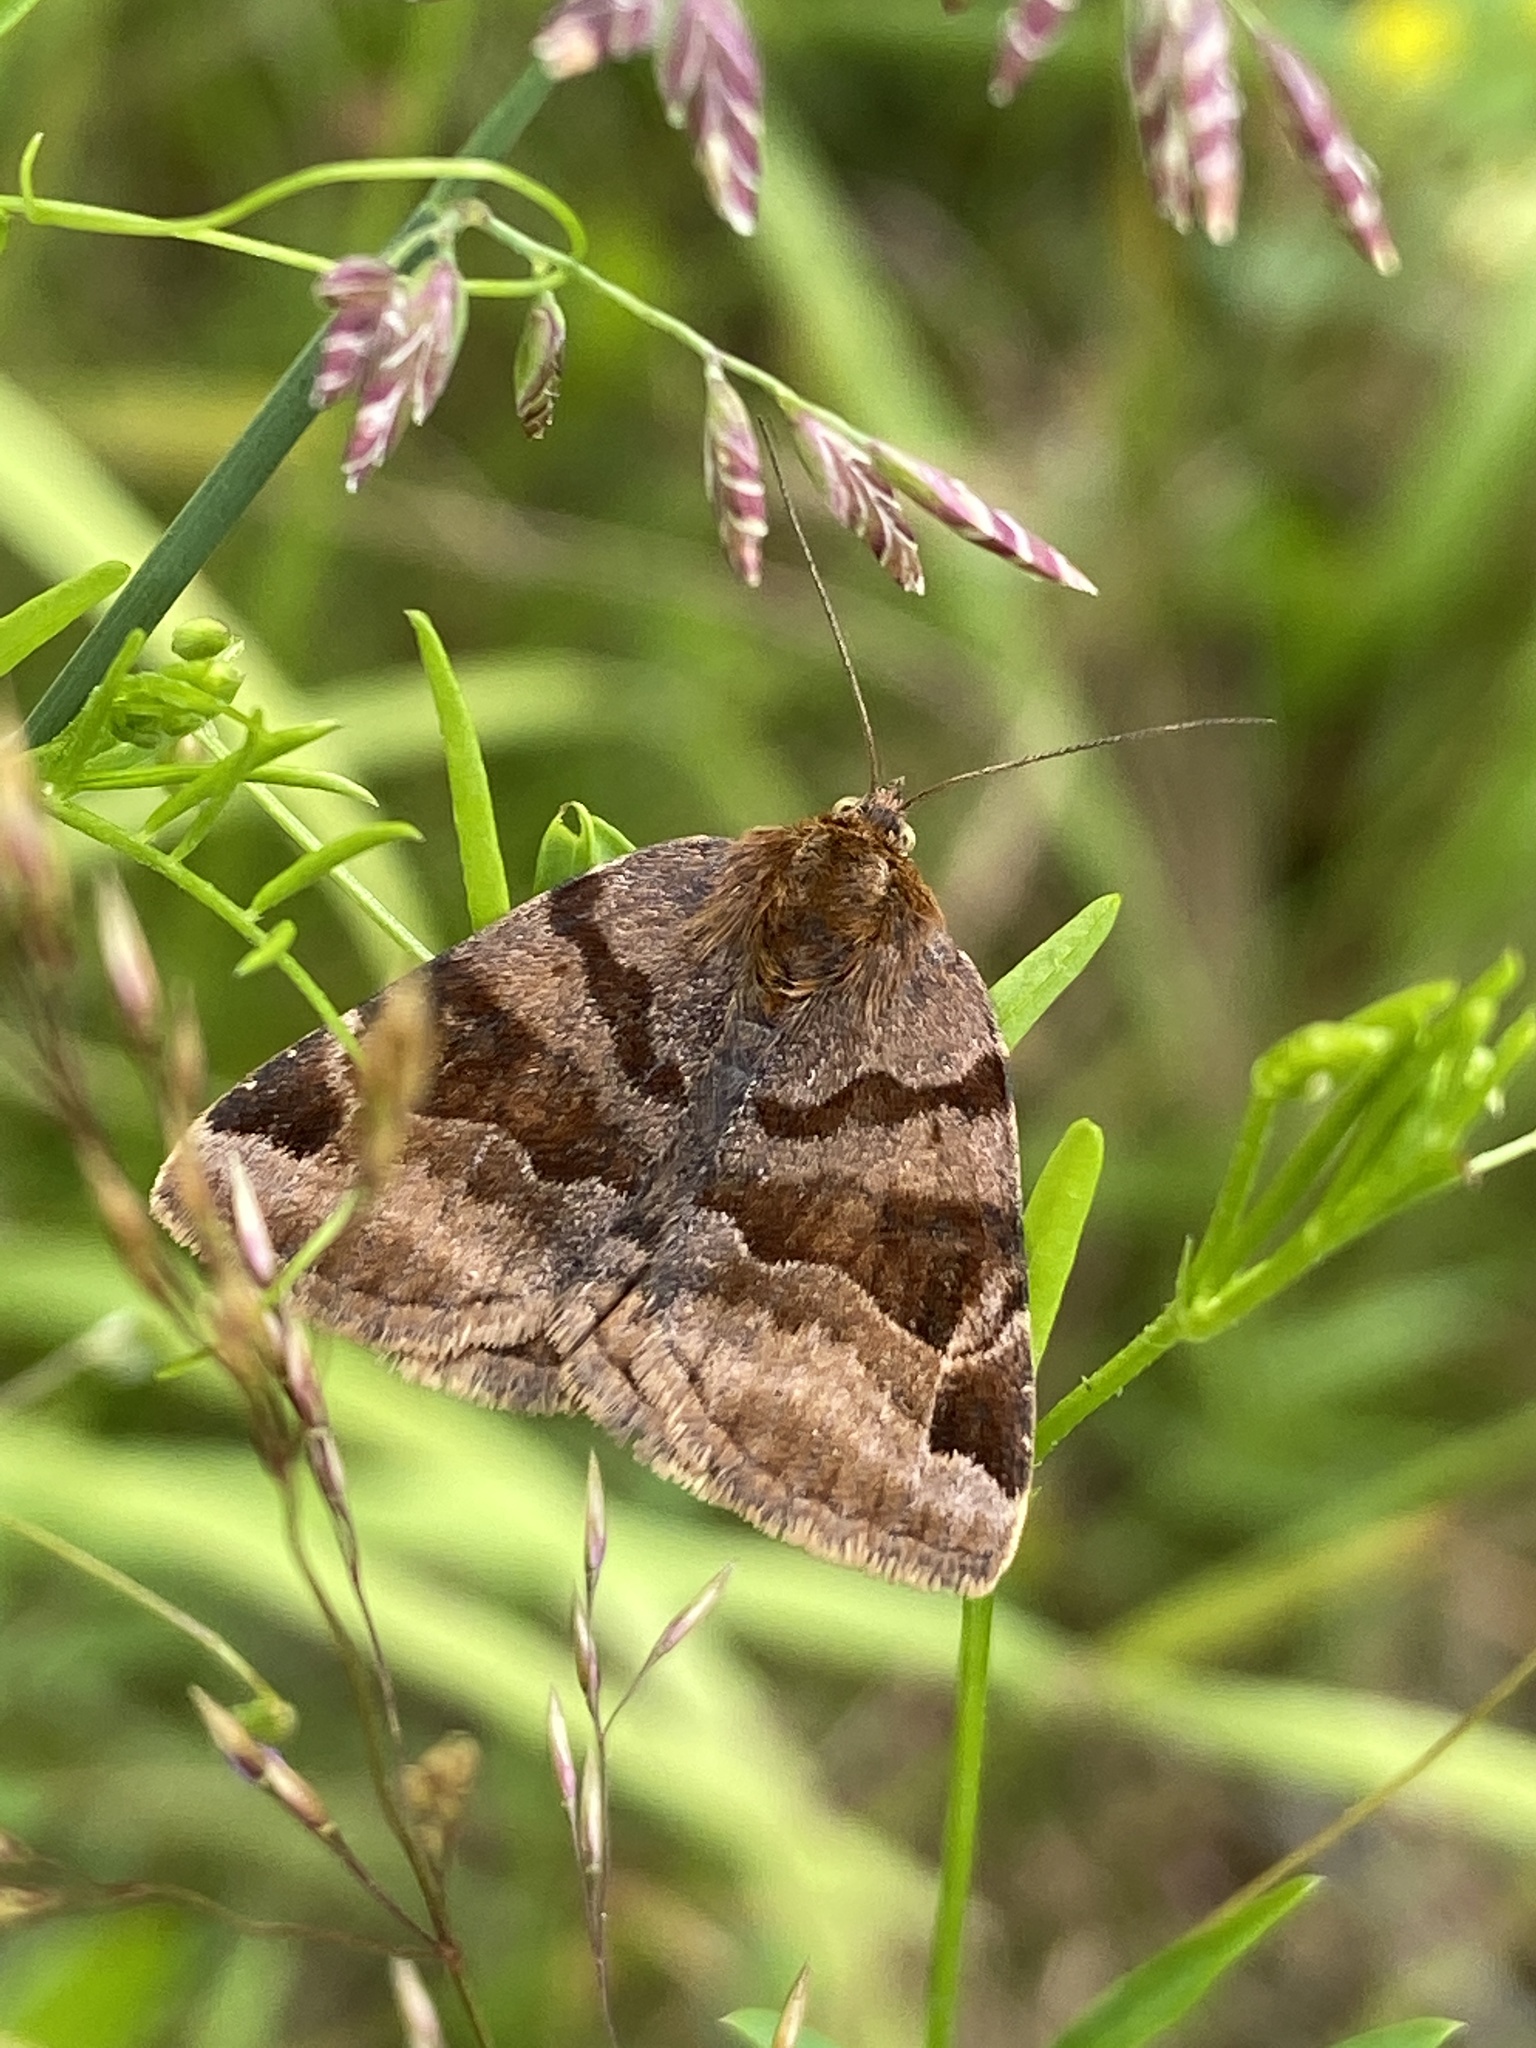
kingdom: Animalia
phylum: Arthropoda
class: Insecta
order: Lepidoptera
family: Erebidae
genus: Euclidia
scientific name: Euclidia glyphica
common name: Burnet companion
